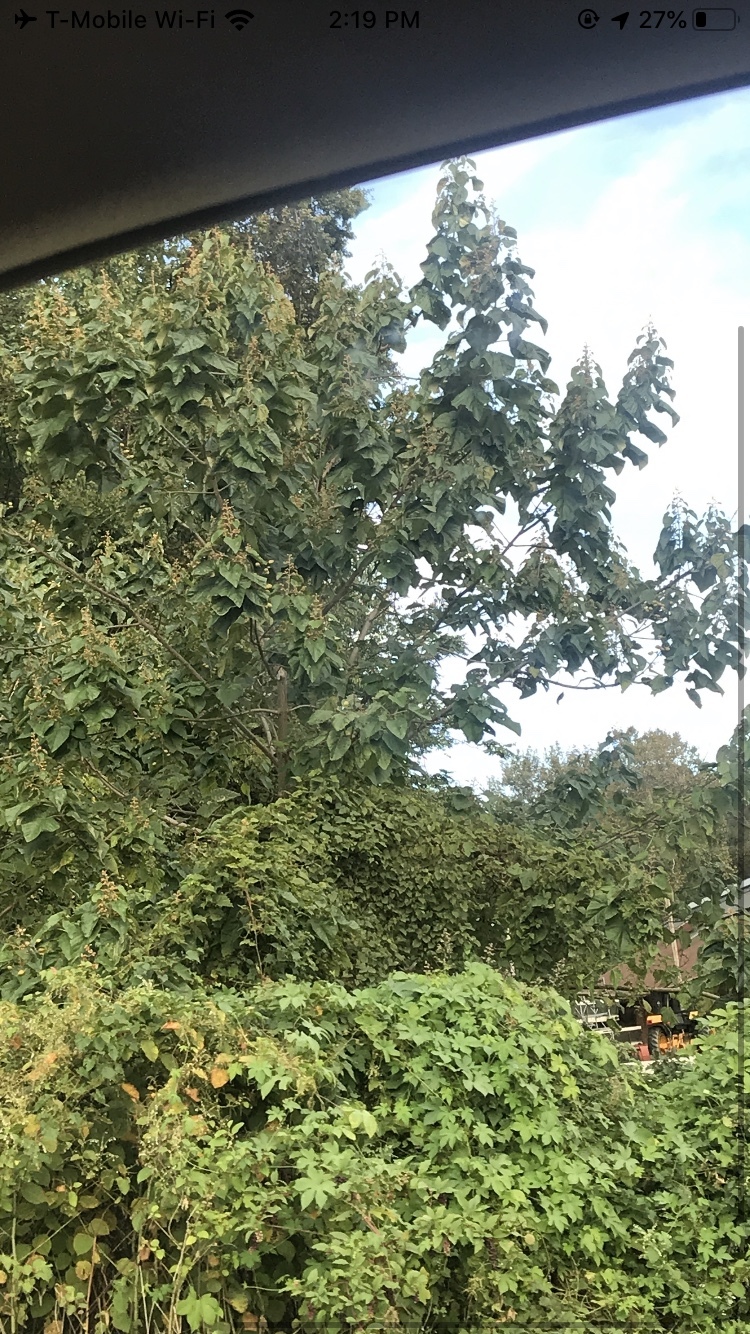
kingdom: Plantae
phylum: Tracheophyta
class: Magnoliopsida
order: Lamiales
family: Paulowniaceae
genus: Paulownia
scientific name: Paulownia tomentosa
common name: Foxglove-tree
